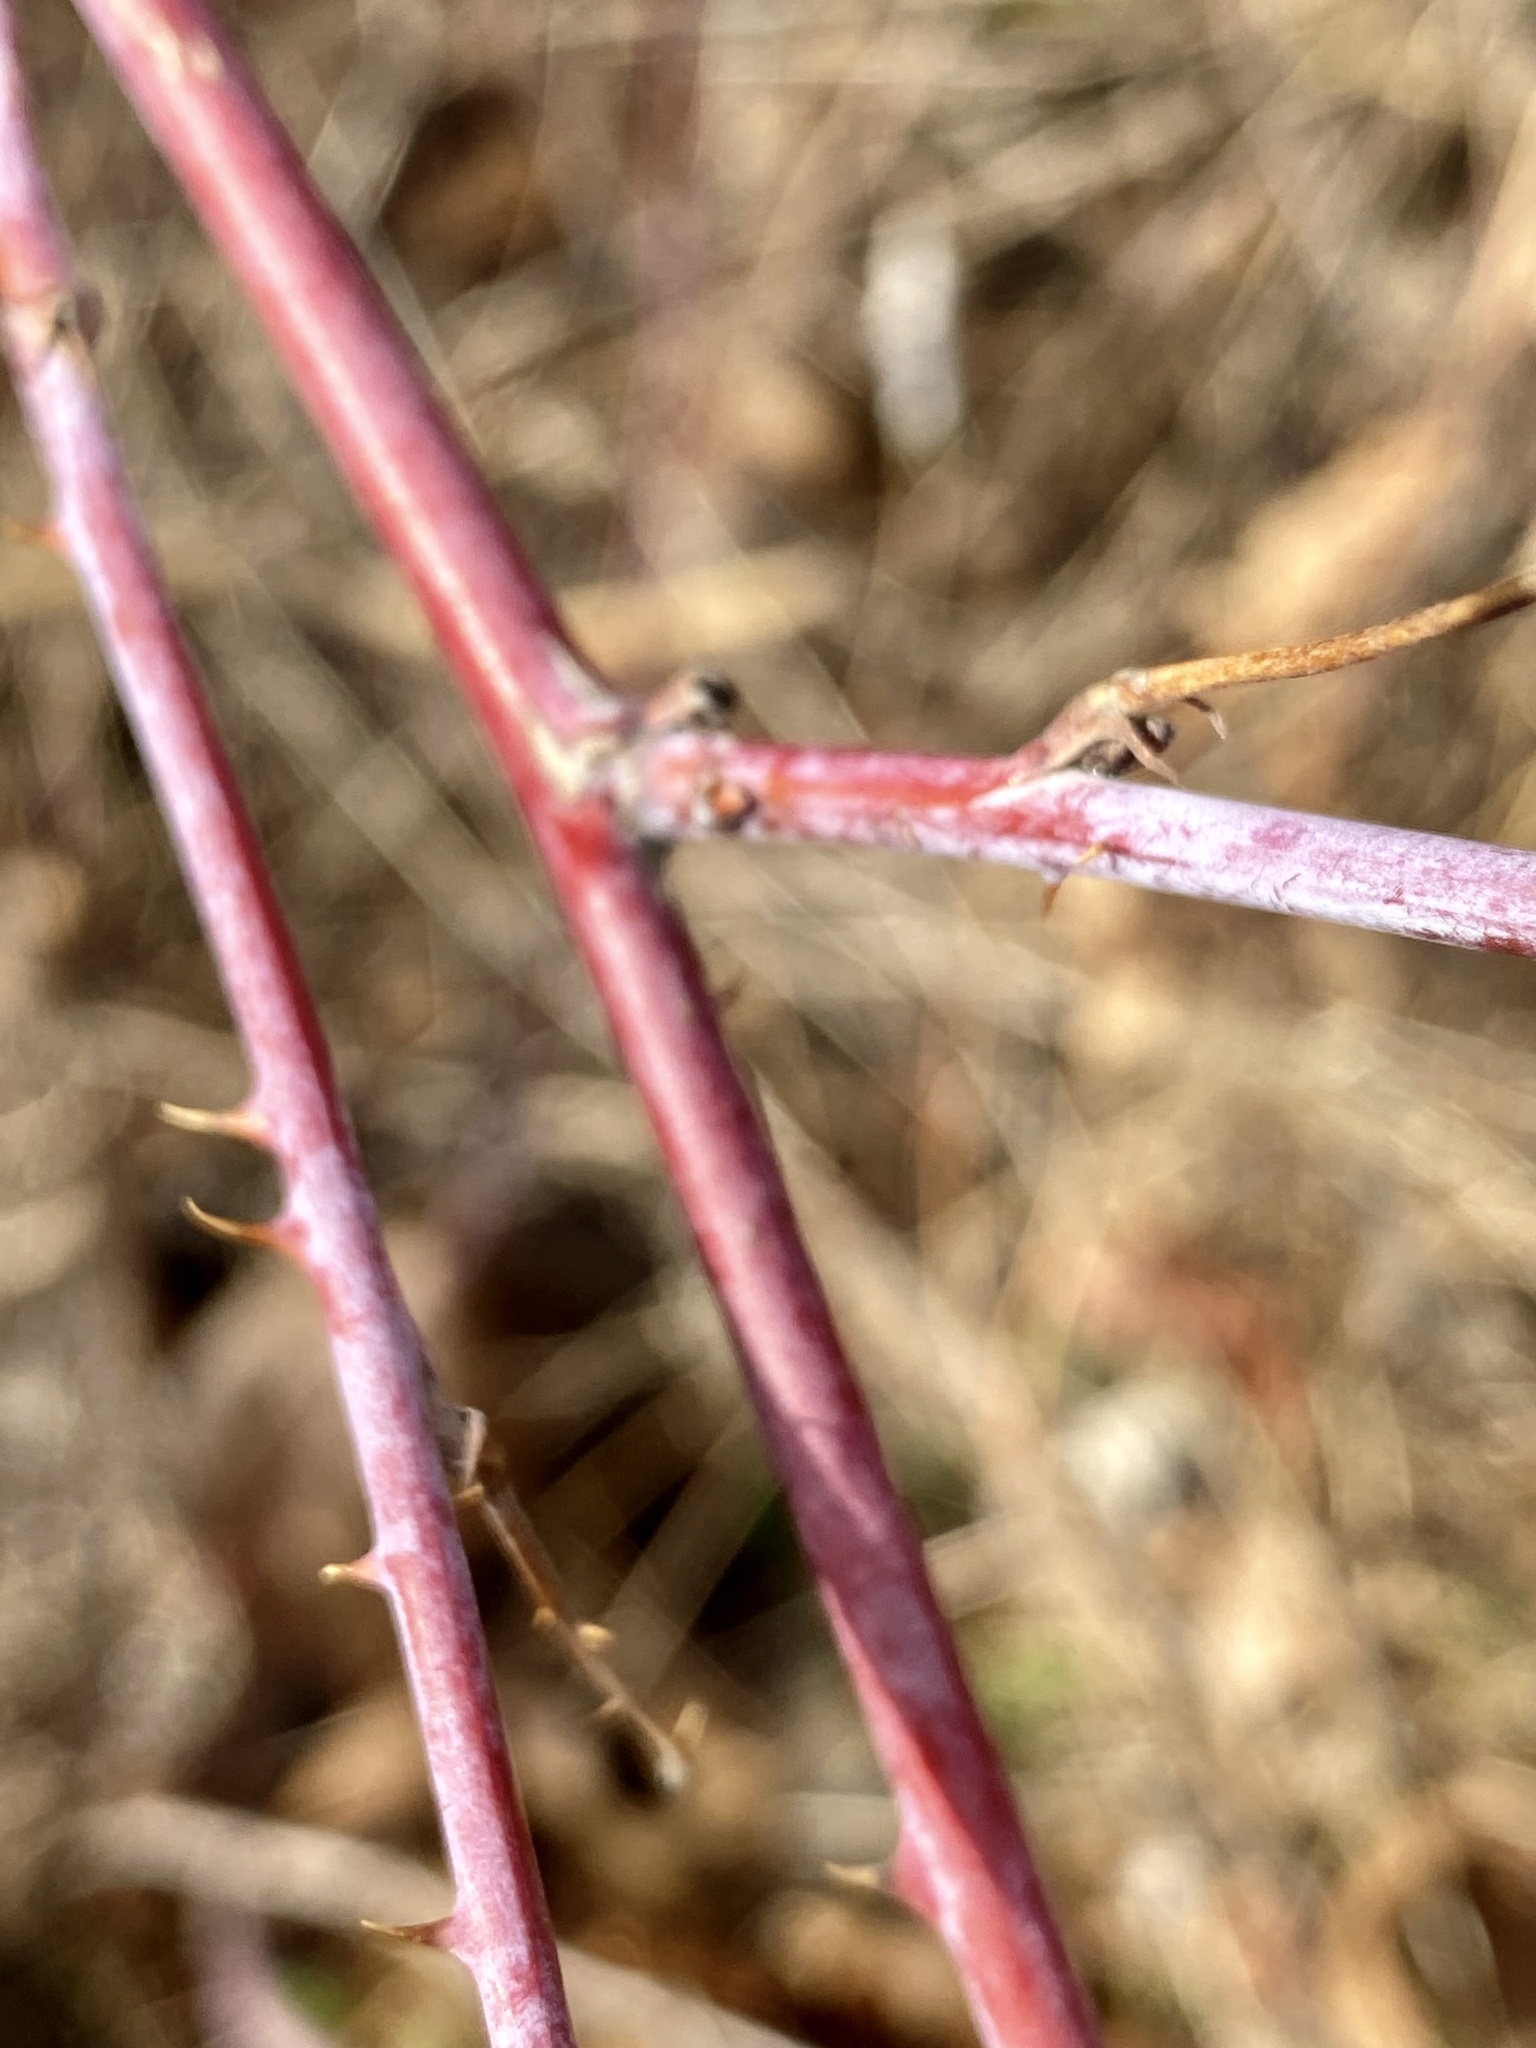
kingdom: Plantae
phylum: Tracheophyta
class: Magnoliopsida
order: Rosales
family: Rosaceae
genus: Rubus
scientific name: Rubus occidentalis
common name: Black raspberry
